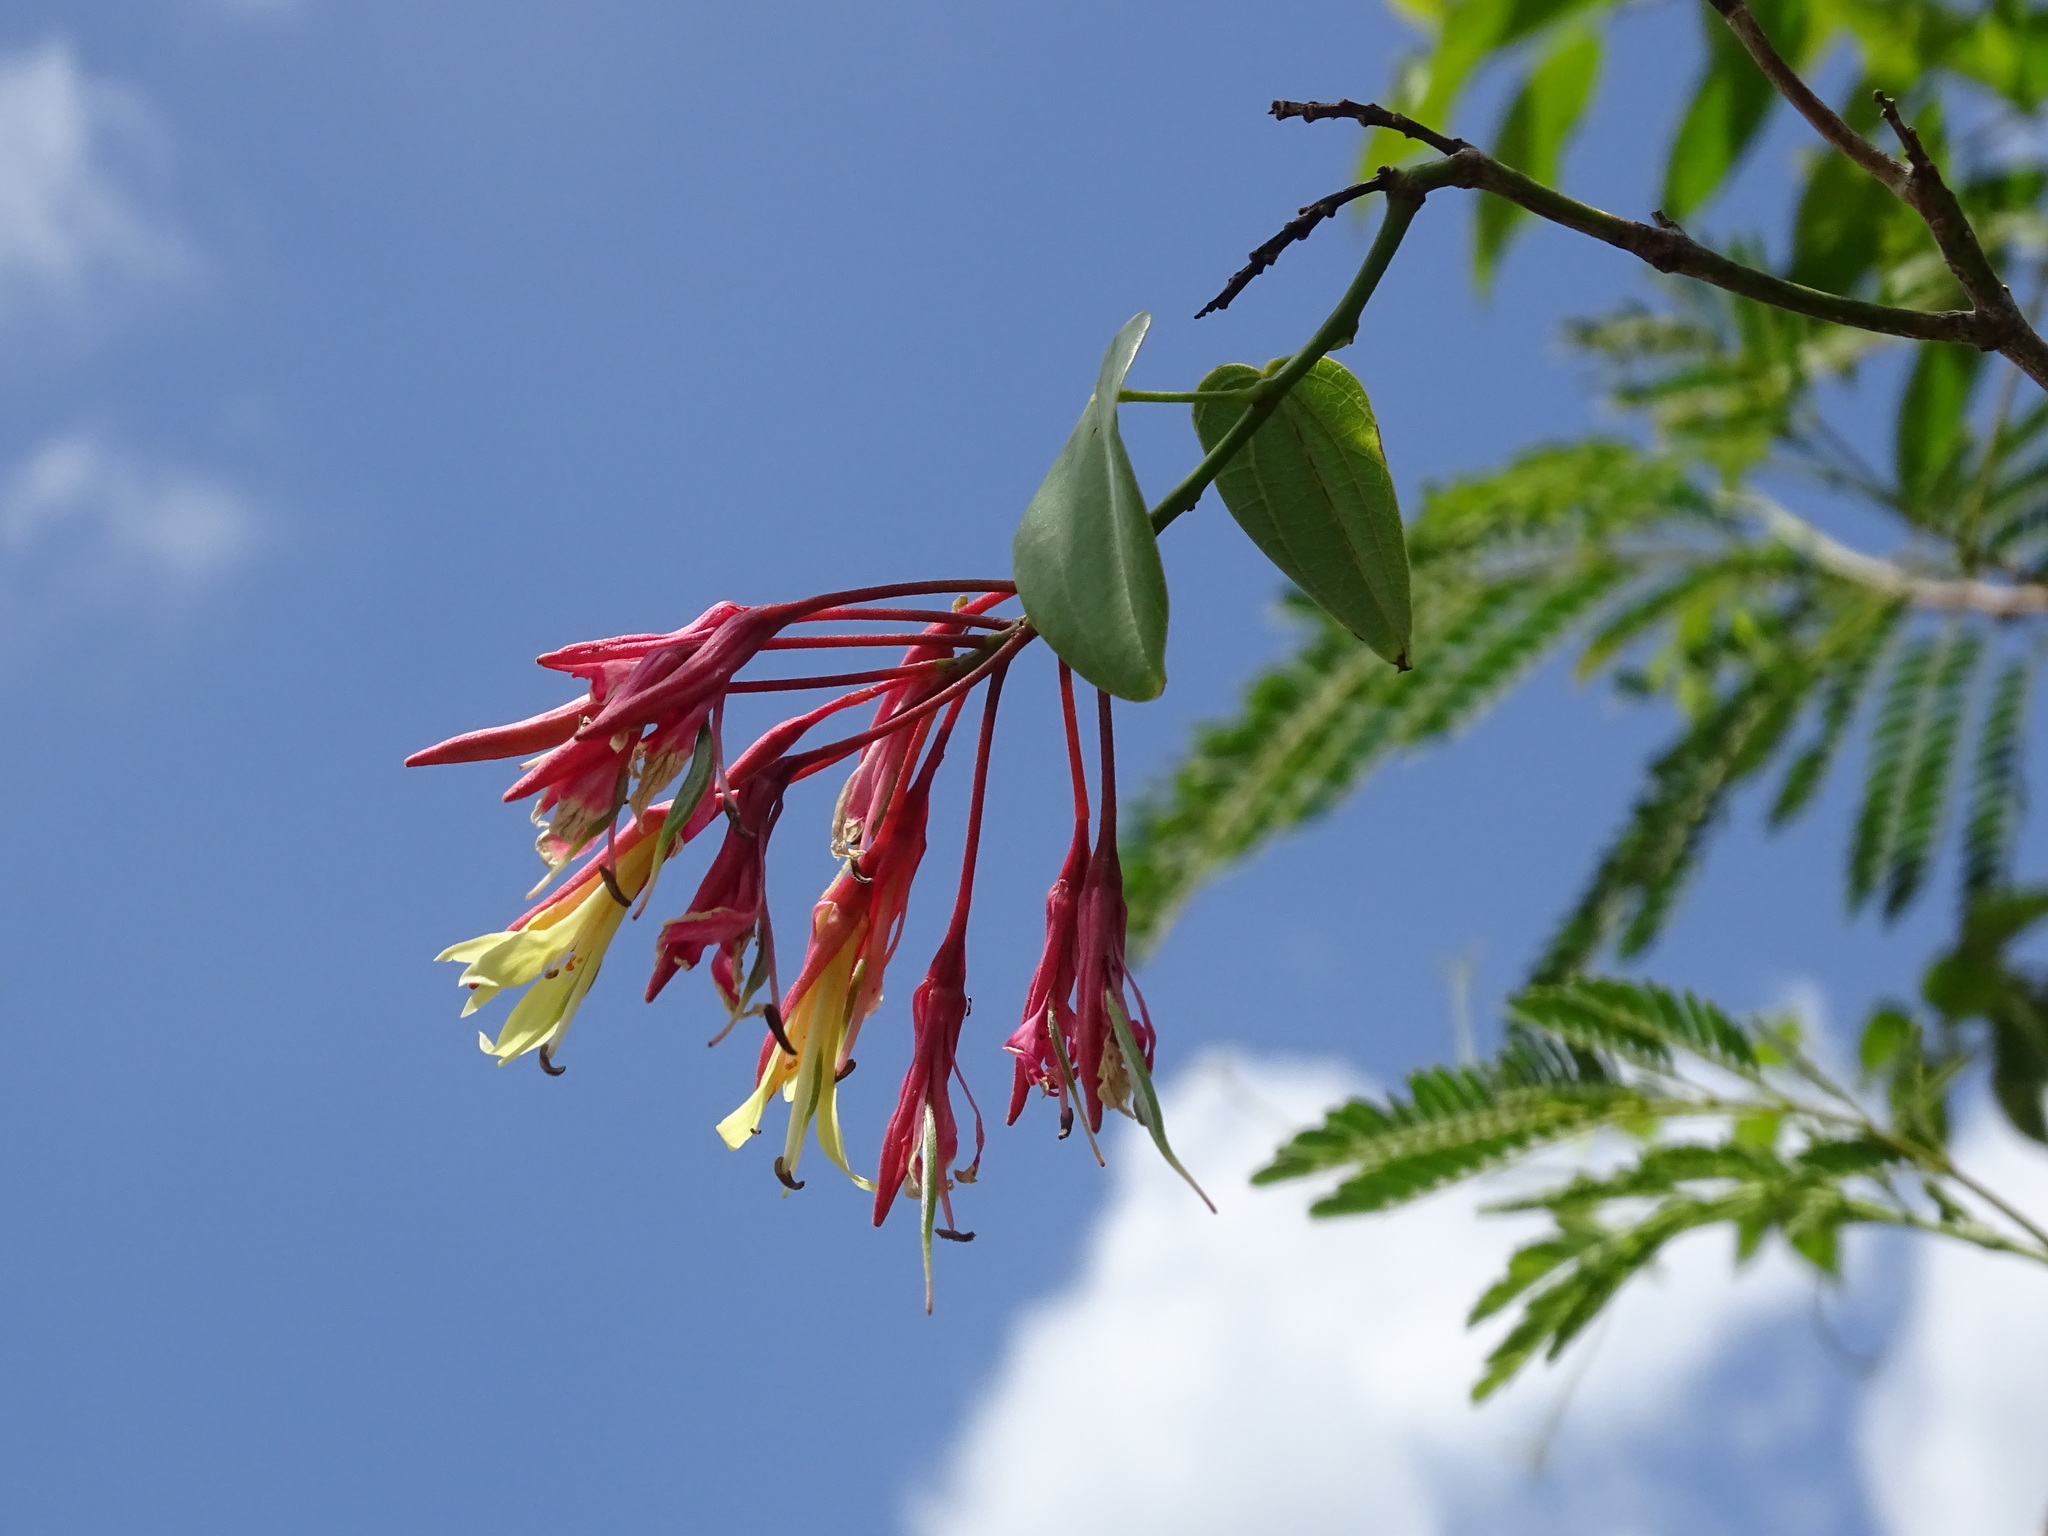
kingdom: Plantae
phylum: Tracheophyta
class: Magnoliopsida
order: Fabales
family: Fabaceae
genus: Bauhinia
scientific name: Bauhinia jenningsii
